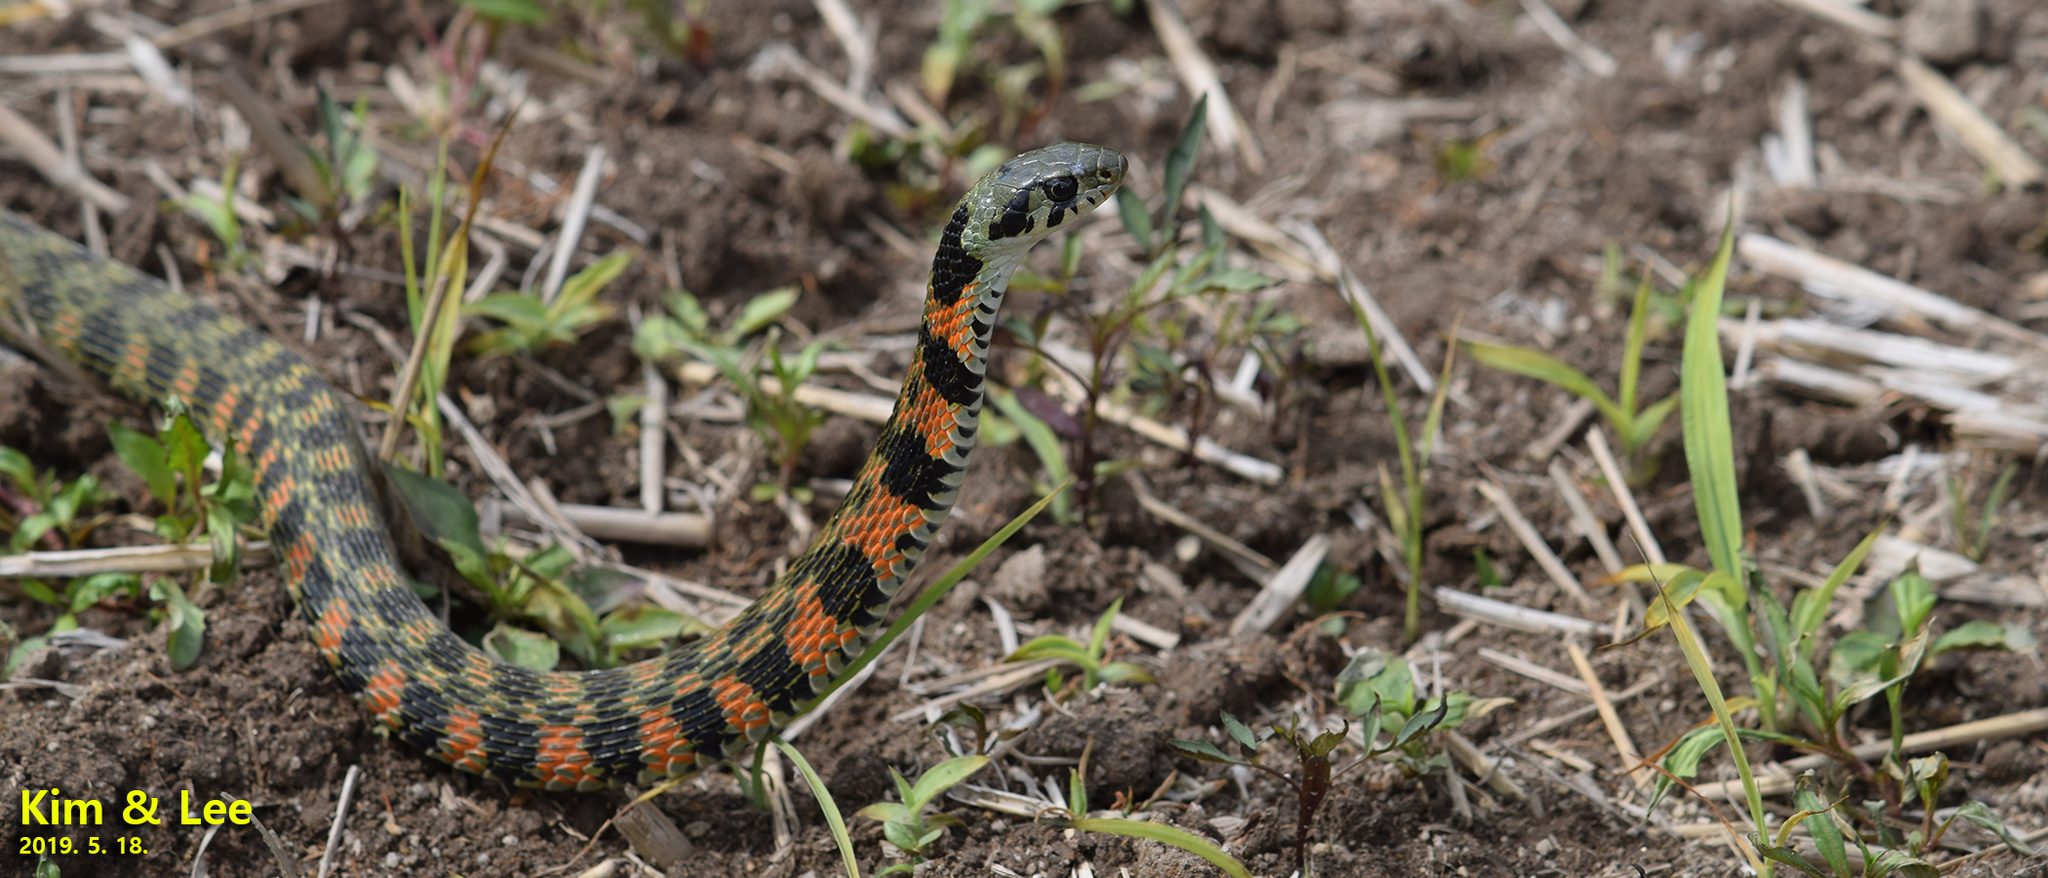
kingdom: Animalia
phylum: Chordata
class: Squamata
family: Colubridae
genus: Rhabdophis
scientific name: Rhabdophis tigrinus
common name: Tiger keelback
